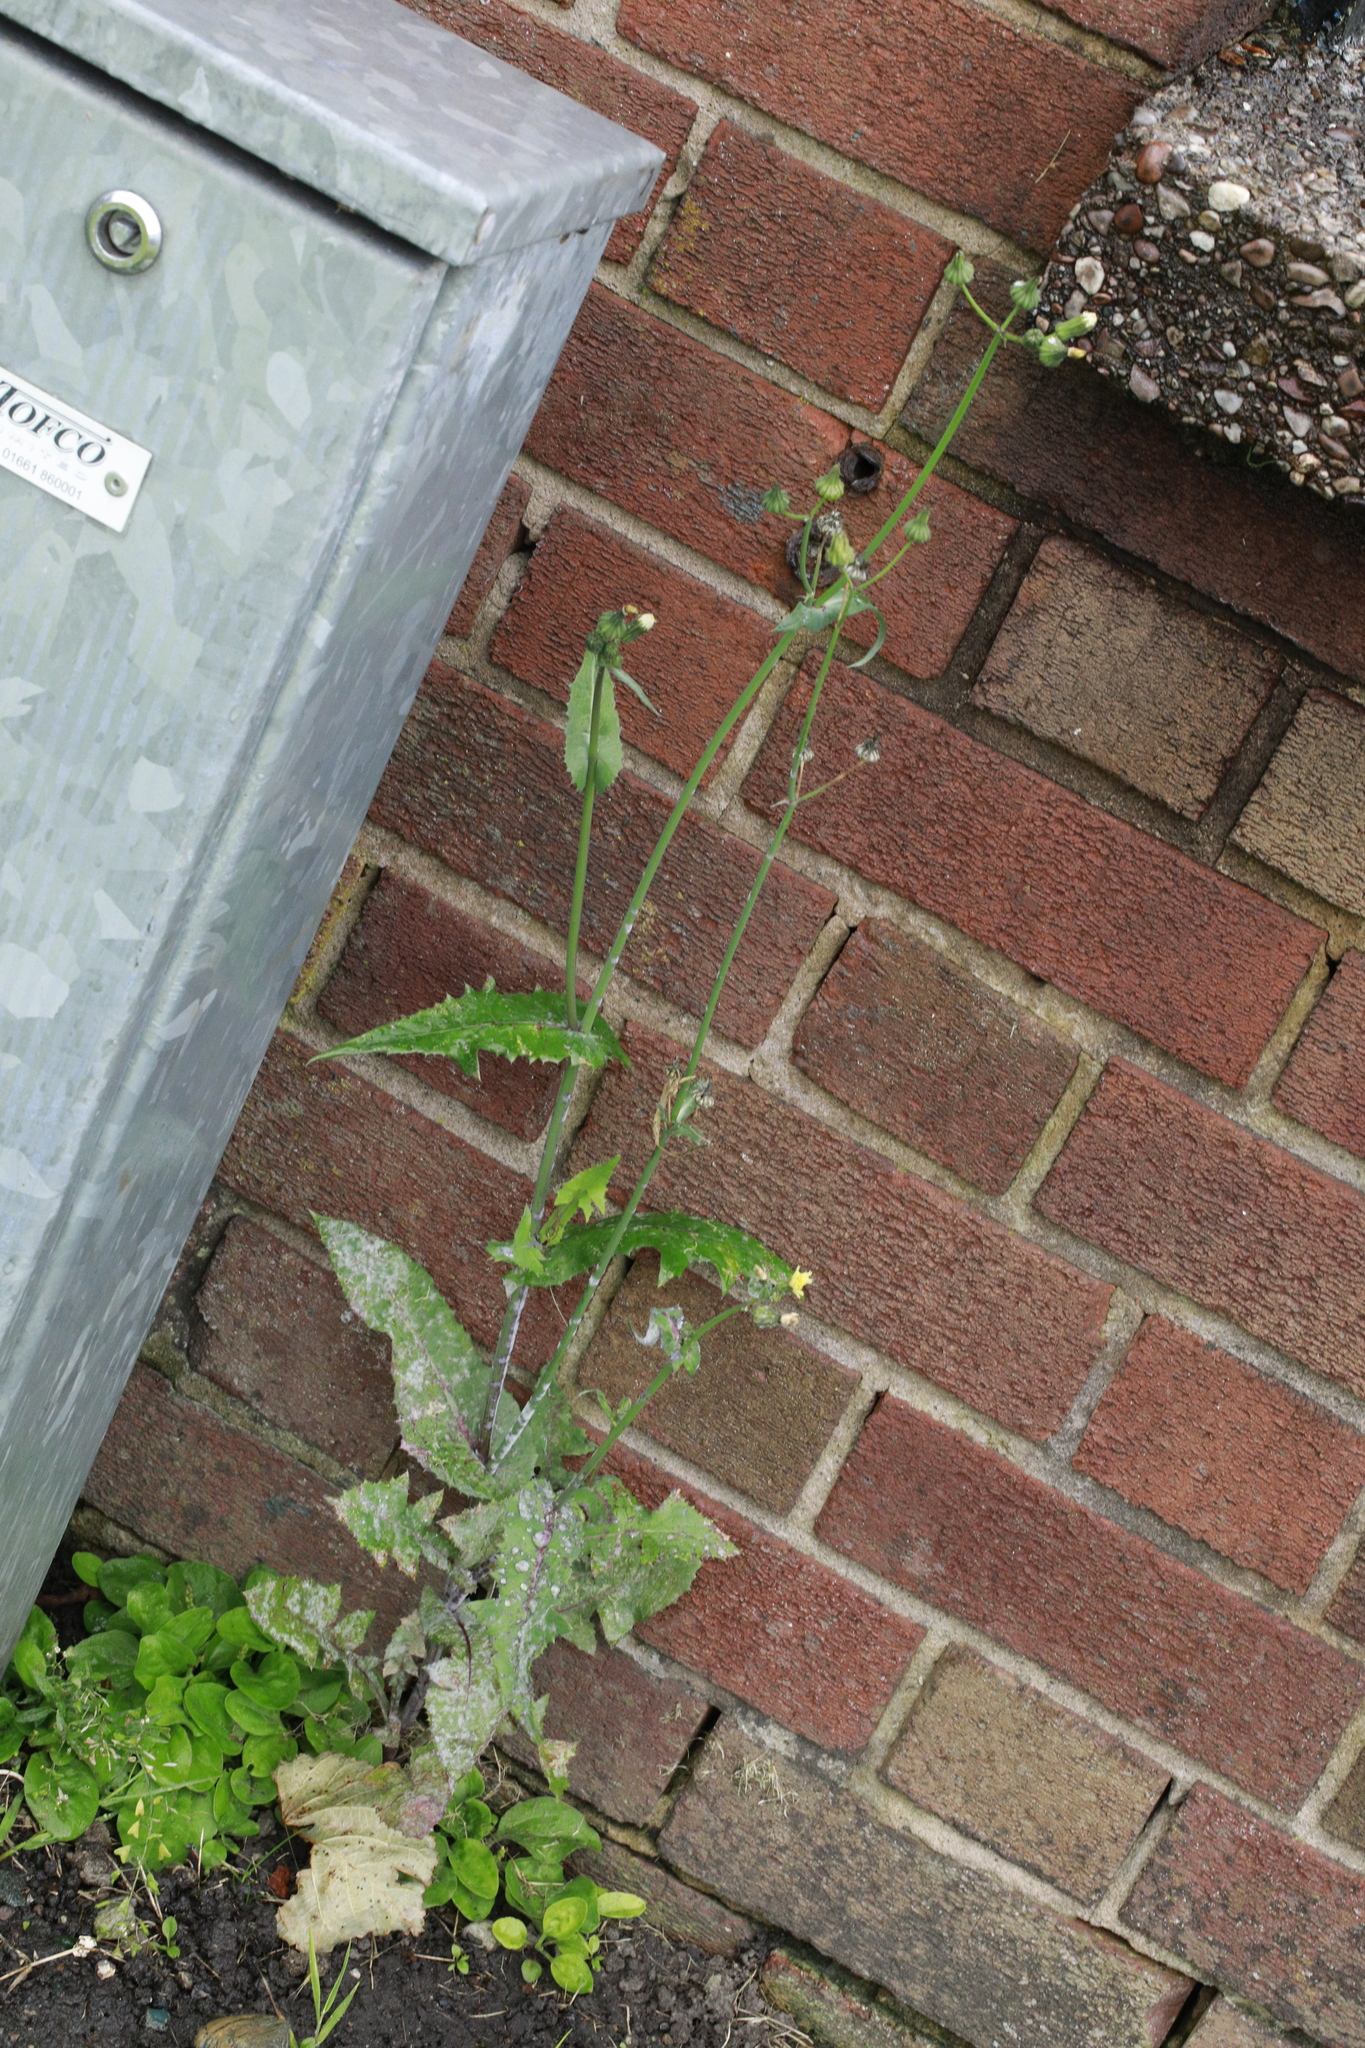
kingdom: Plantae
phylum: Tracheophyta
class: Magnoliopsida
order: Asterales
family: Asteraceae
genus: Sonchus
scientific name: Sonchus oleraceus
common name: Common sowthistle
